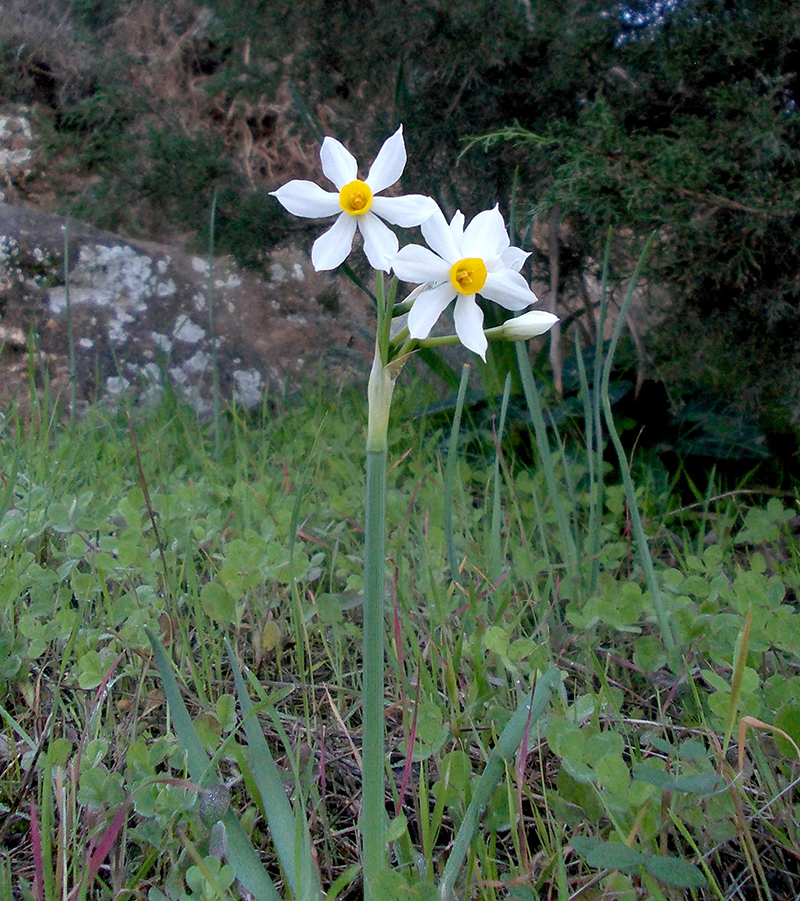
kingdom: Plantae
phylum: Tracheophyta
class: Liliopsida
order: Asparagales
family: Amaryllidaceae
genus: Narcissus
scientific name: Narcissus tazetta
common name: Bunch-flowered daffodil
